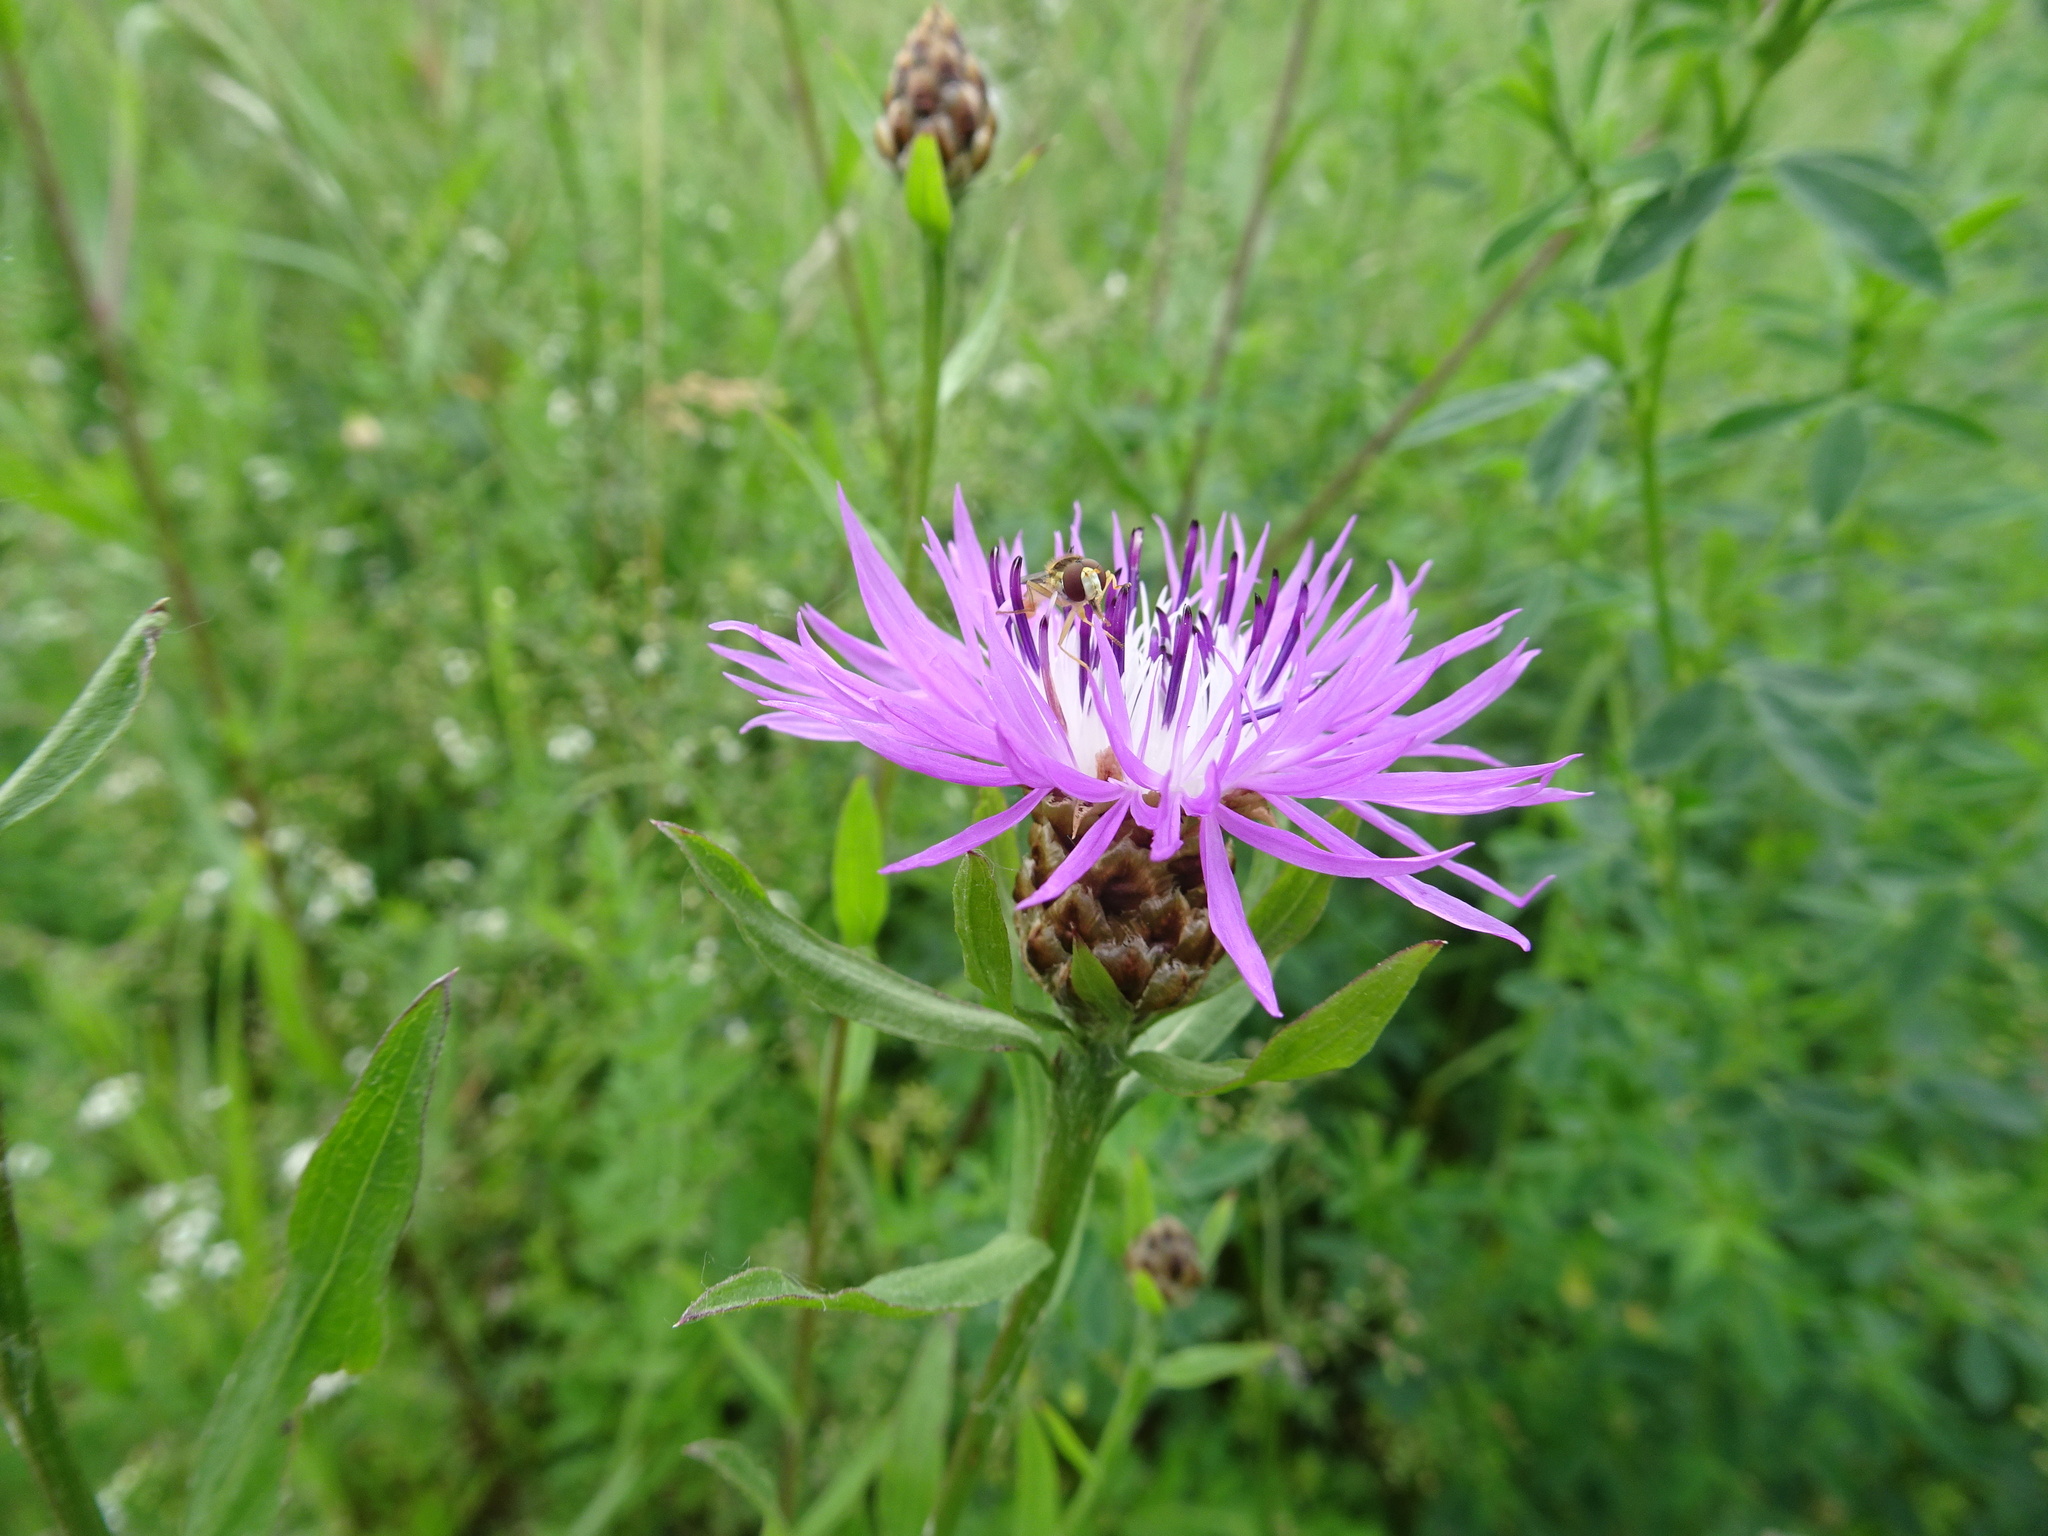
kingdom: Plantae
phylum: Tracheophyta
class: Magnoliopsida
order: Asterales
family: Asteraceae
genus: Centaurea
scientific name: Centaurea jacea
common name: Brown knapweed
